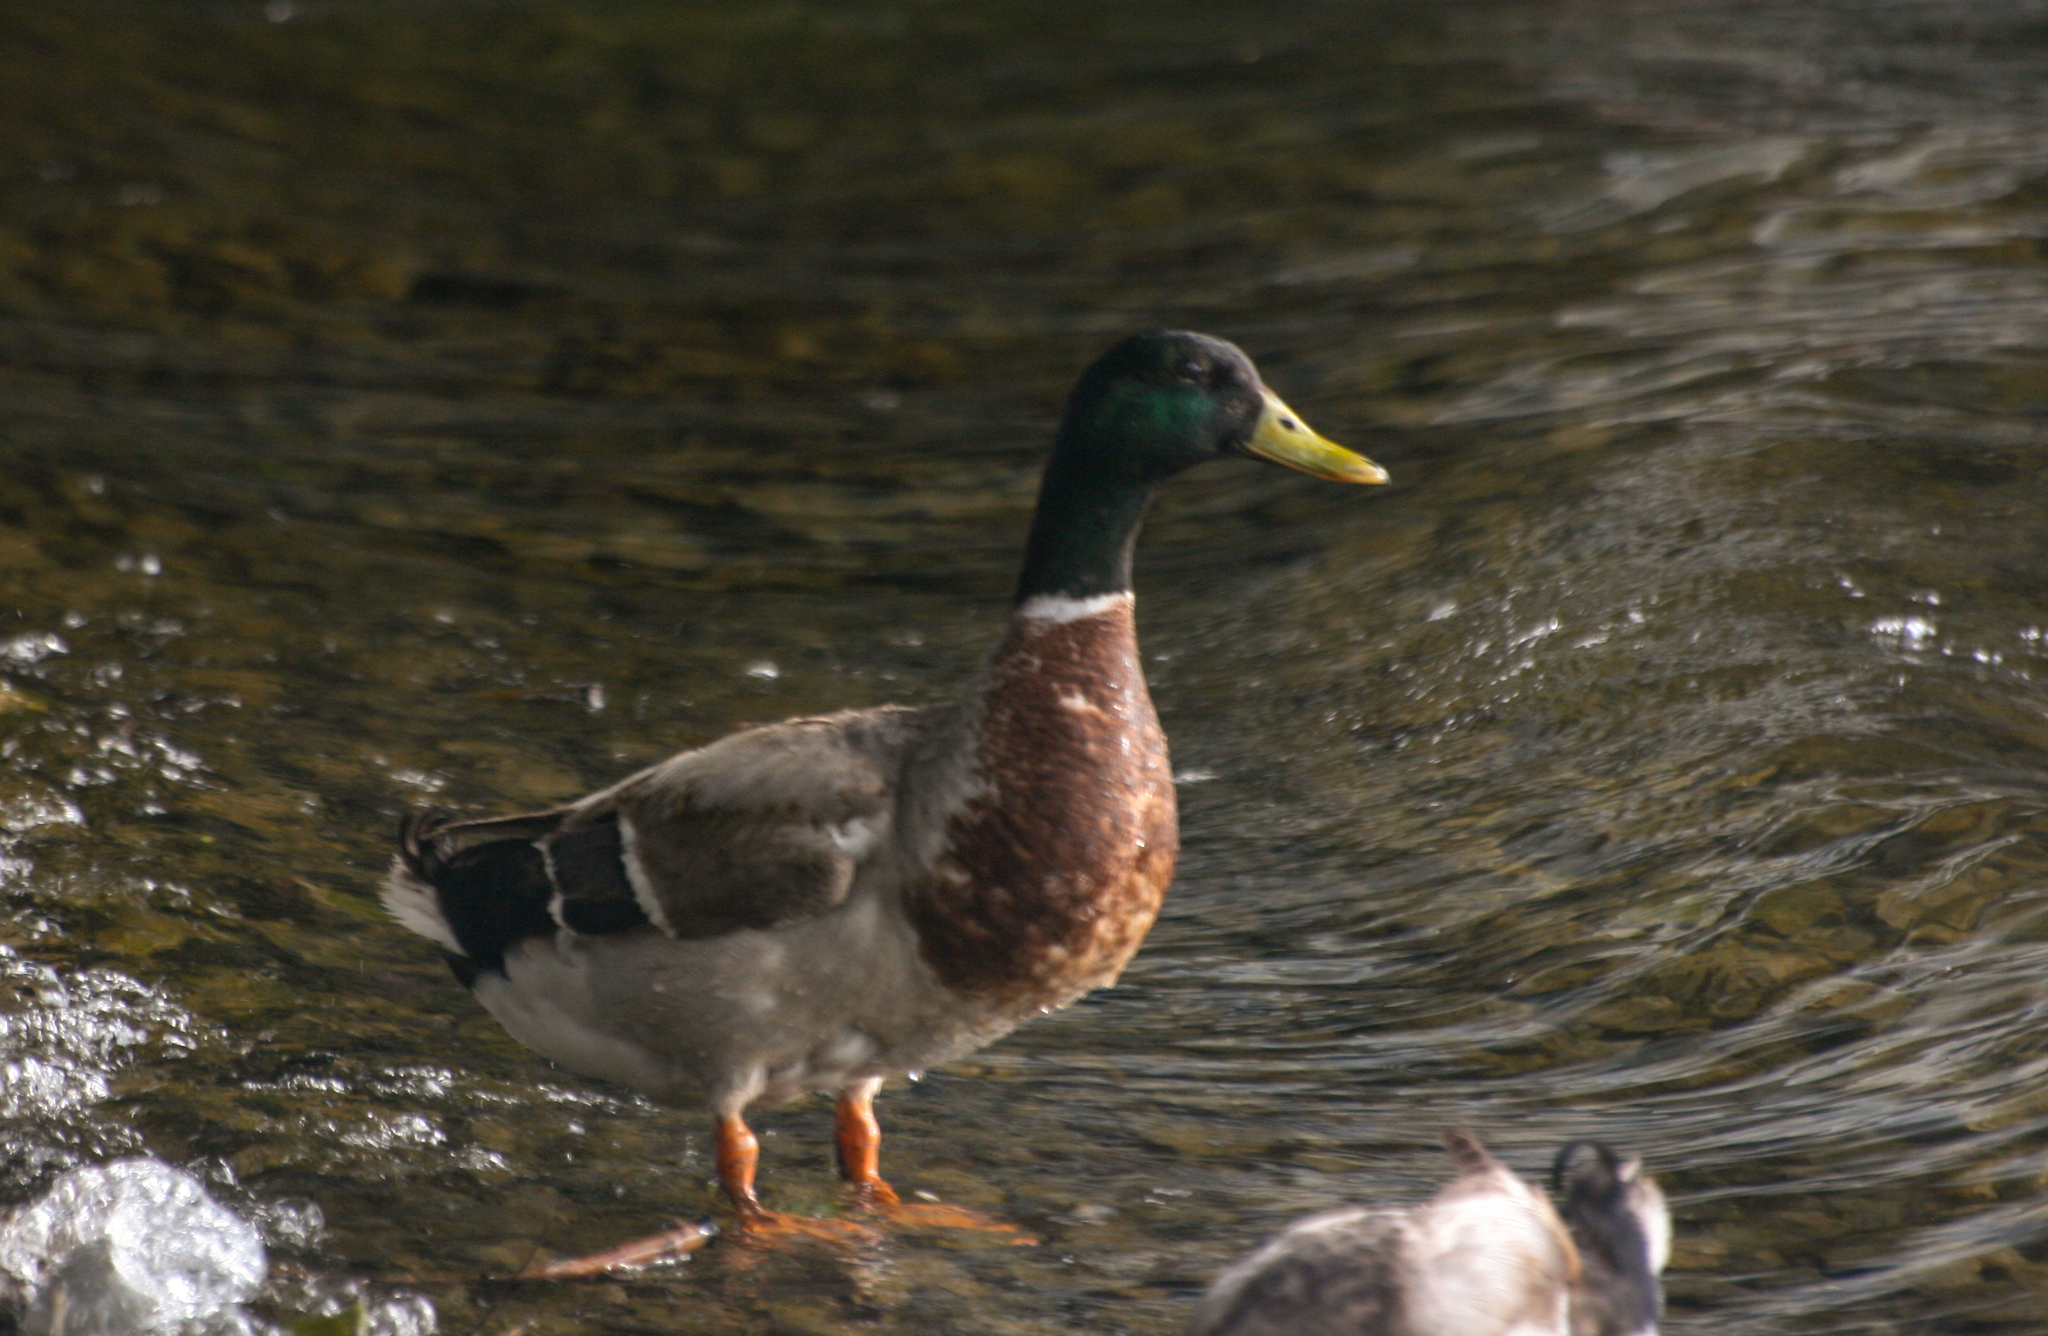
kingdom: Animalia
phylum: Chordata
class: Aves
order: Anseriformes
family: Anatidae
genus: Anas
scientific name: Anas platyrhynchos
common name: Mallard
